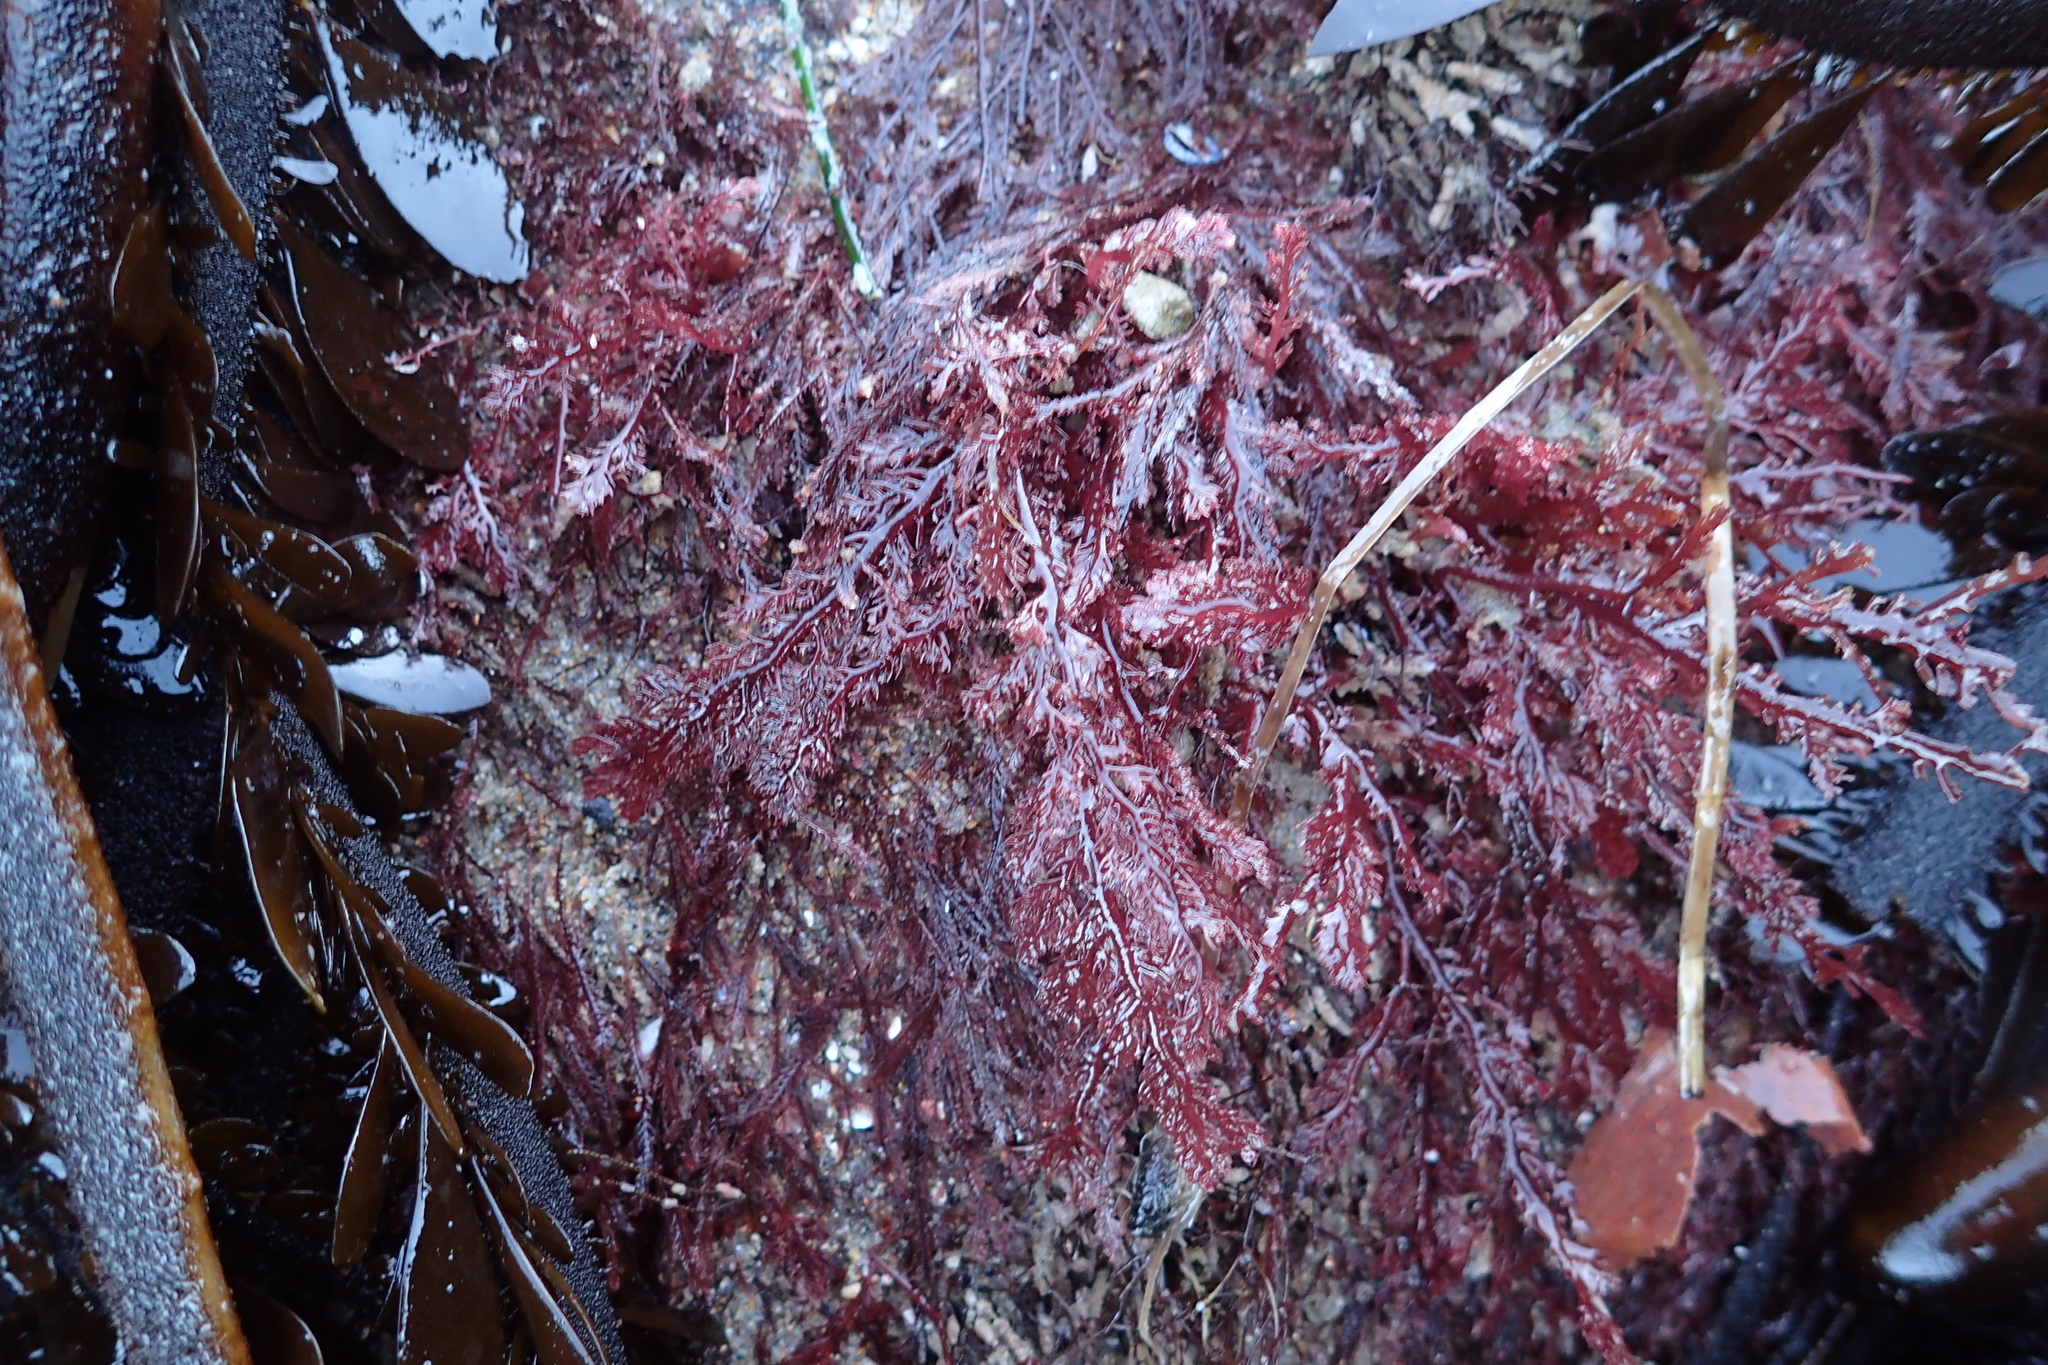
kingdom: Plantae
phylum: Rhodophyta
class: Florideophyceae
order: Plocamiales
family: Plocamiaceae
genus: Plocamium
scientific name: Plocamium cartilagineum
